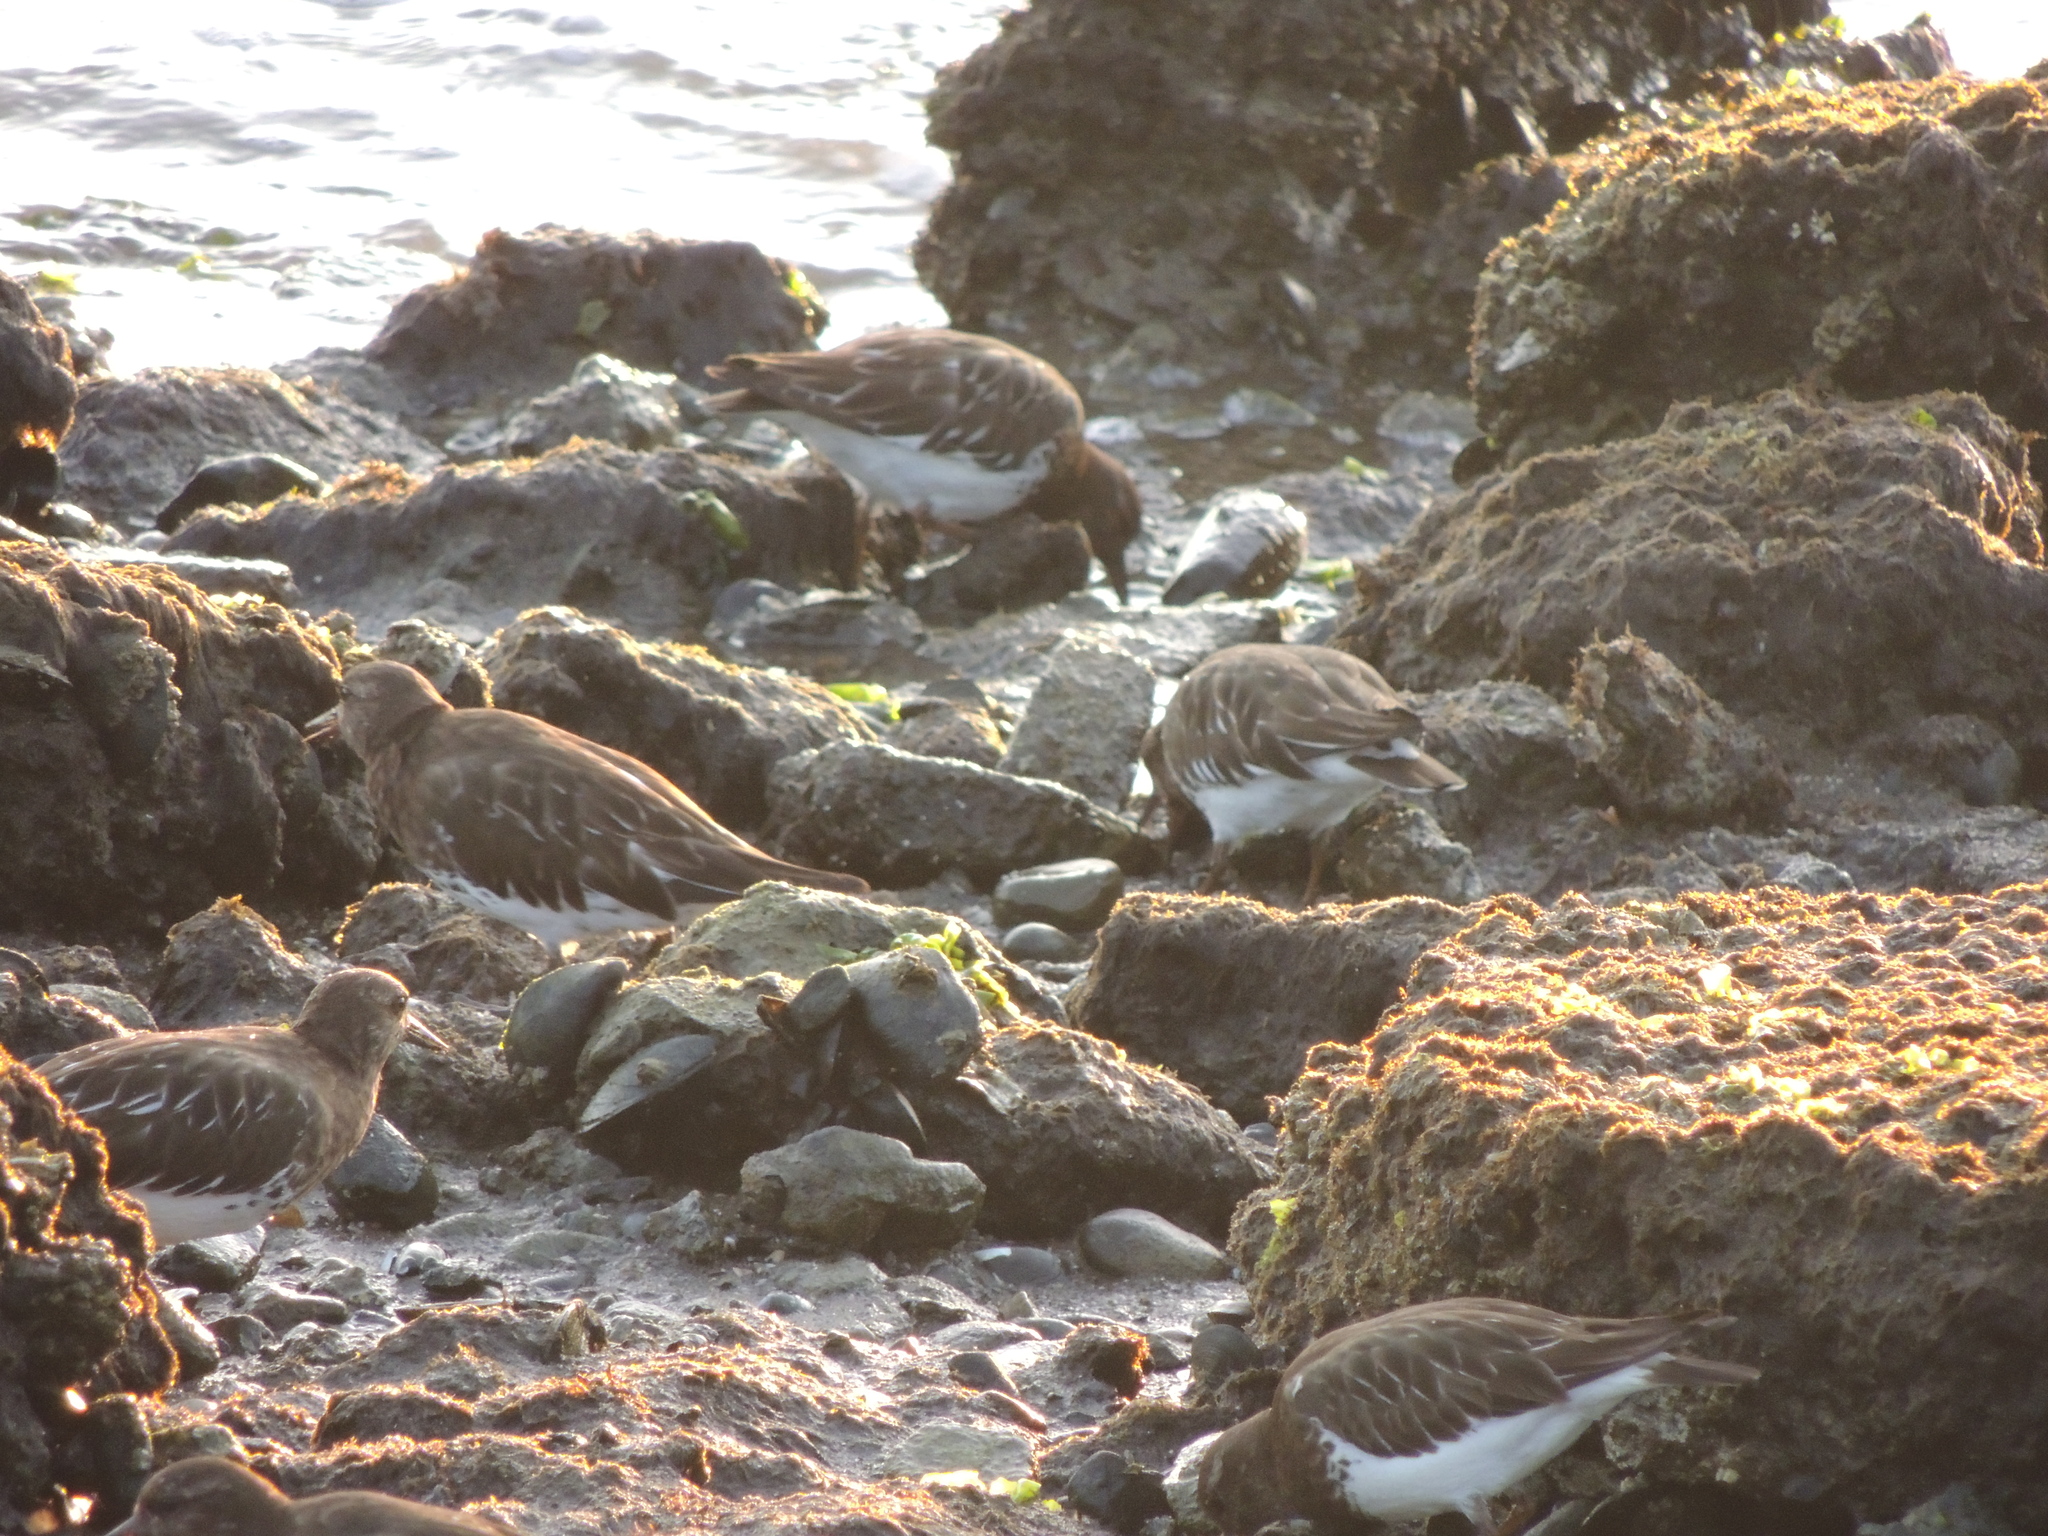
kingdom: Animalia
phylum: Chordata
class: Aves
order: Charadriiformes
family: Scolopacidae
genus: Arenaria
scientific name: Arenaria melanocephala
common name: Black turnstone
